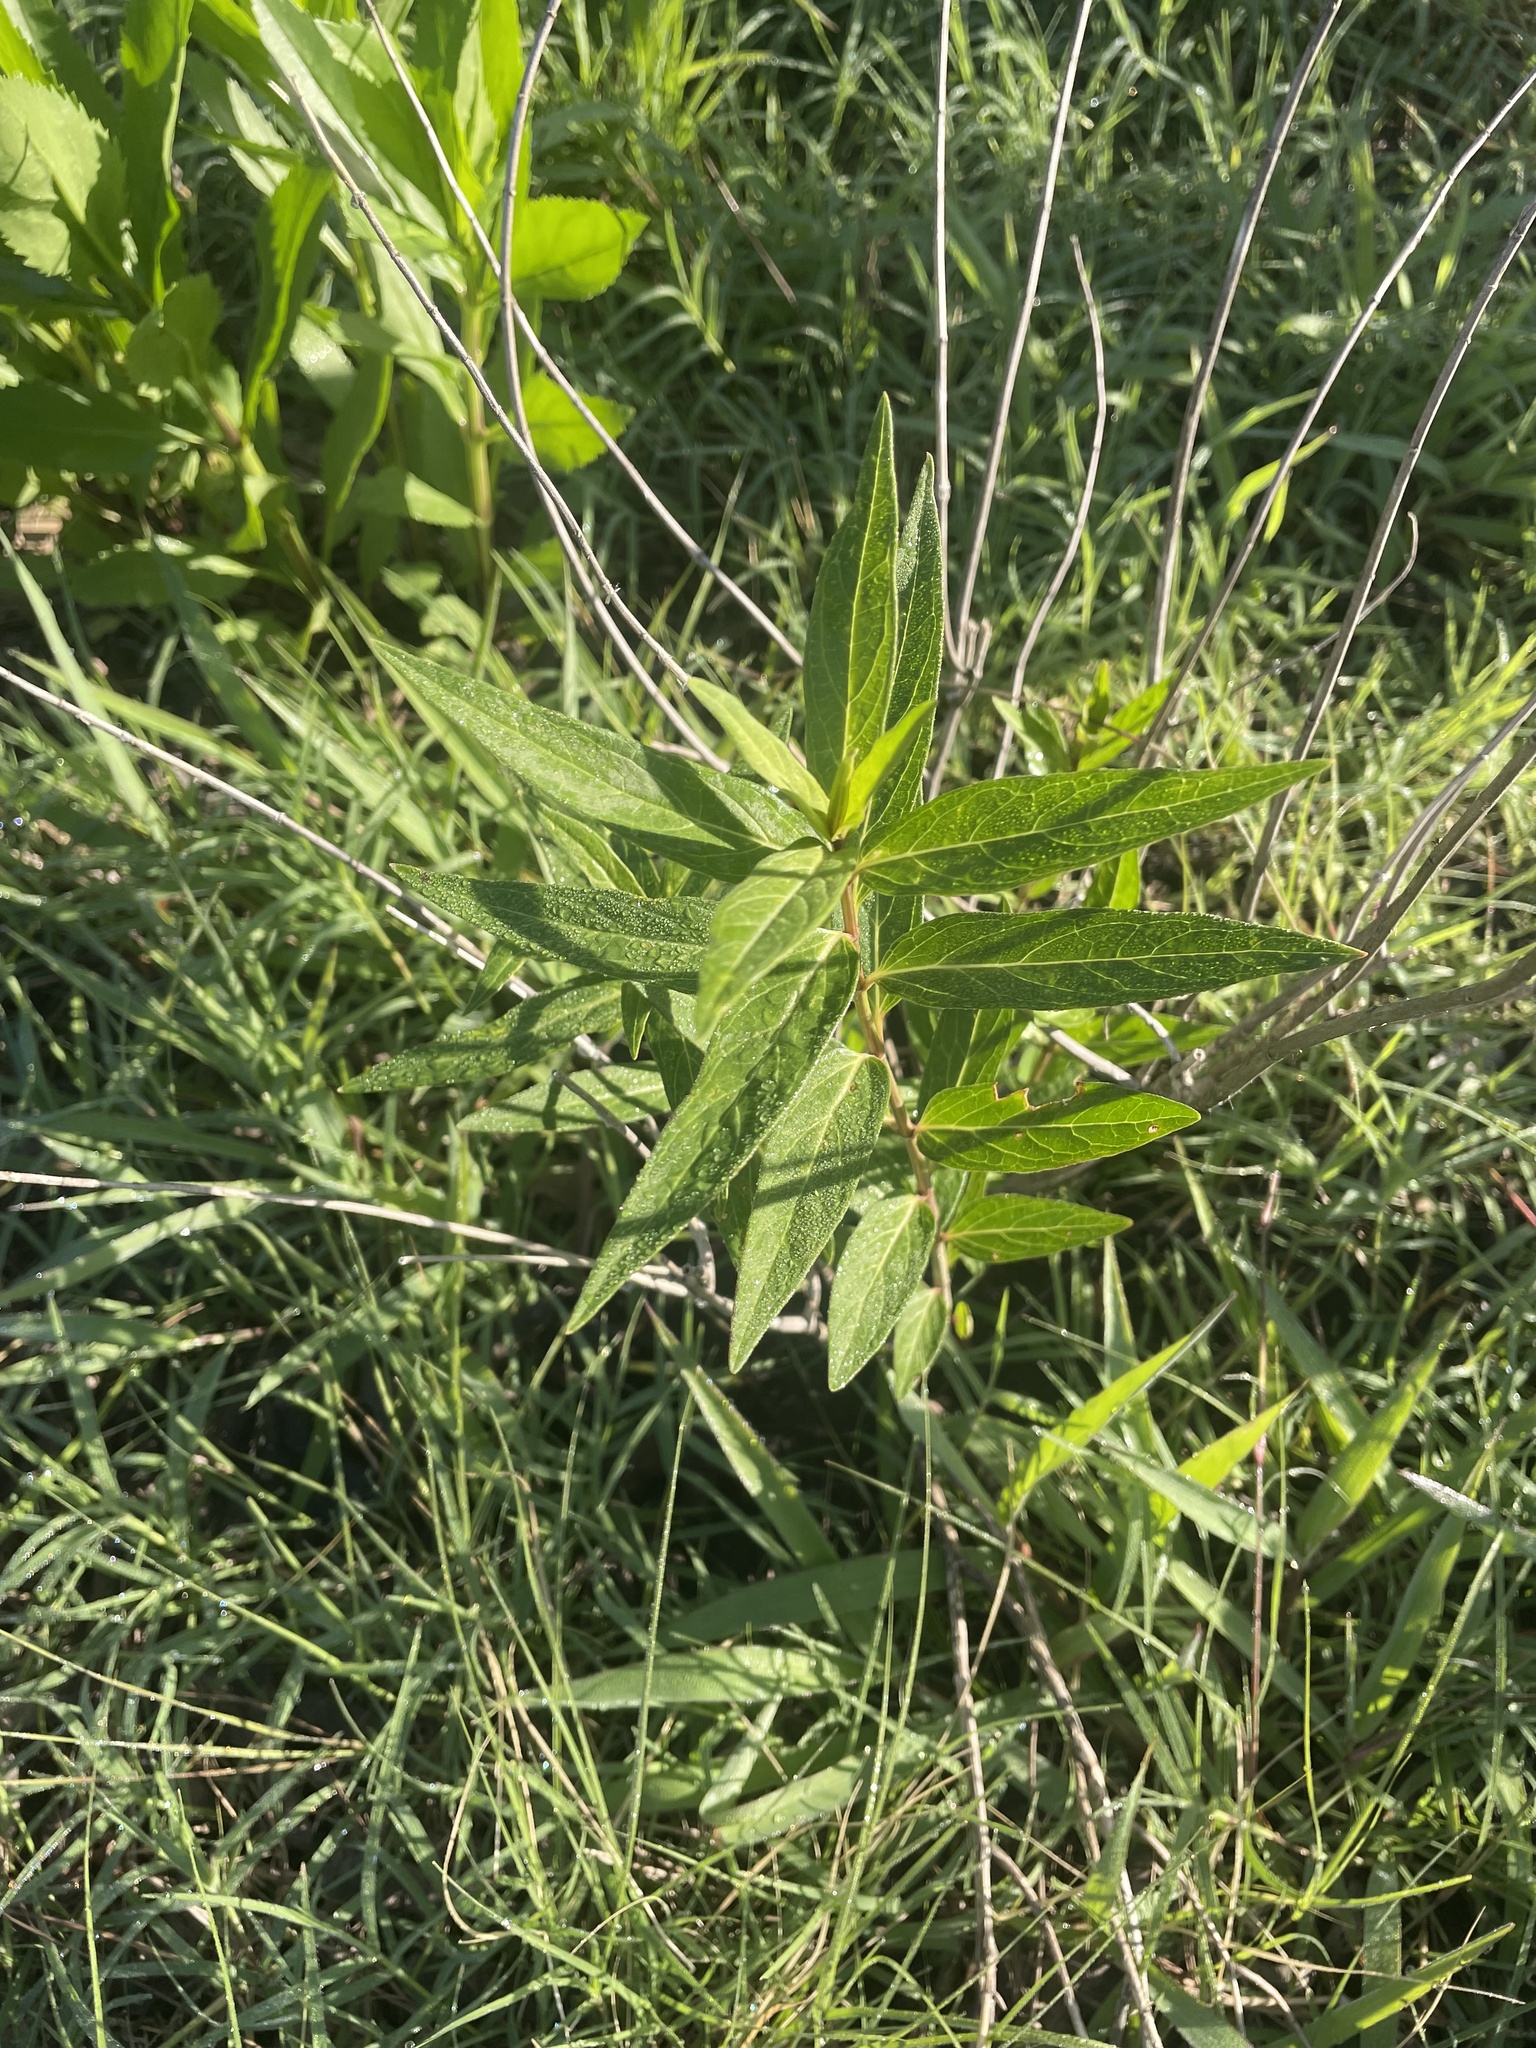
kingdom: Plantae
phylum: Tracheophyta
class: Magnoliopsida
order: Gentianales
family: Apocynaceae
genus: Asclepias
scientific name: Asclepias incarnata
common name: Swamp milkweed
